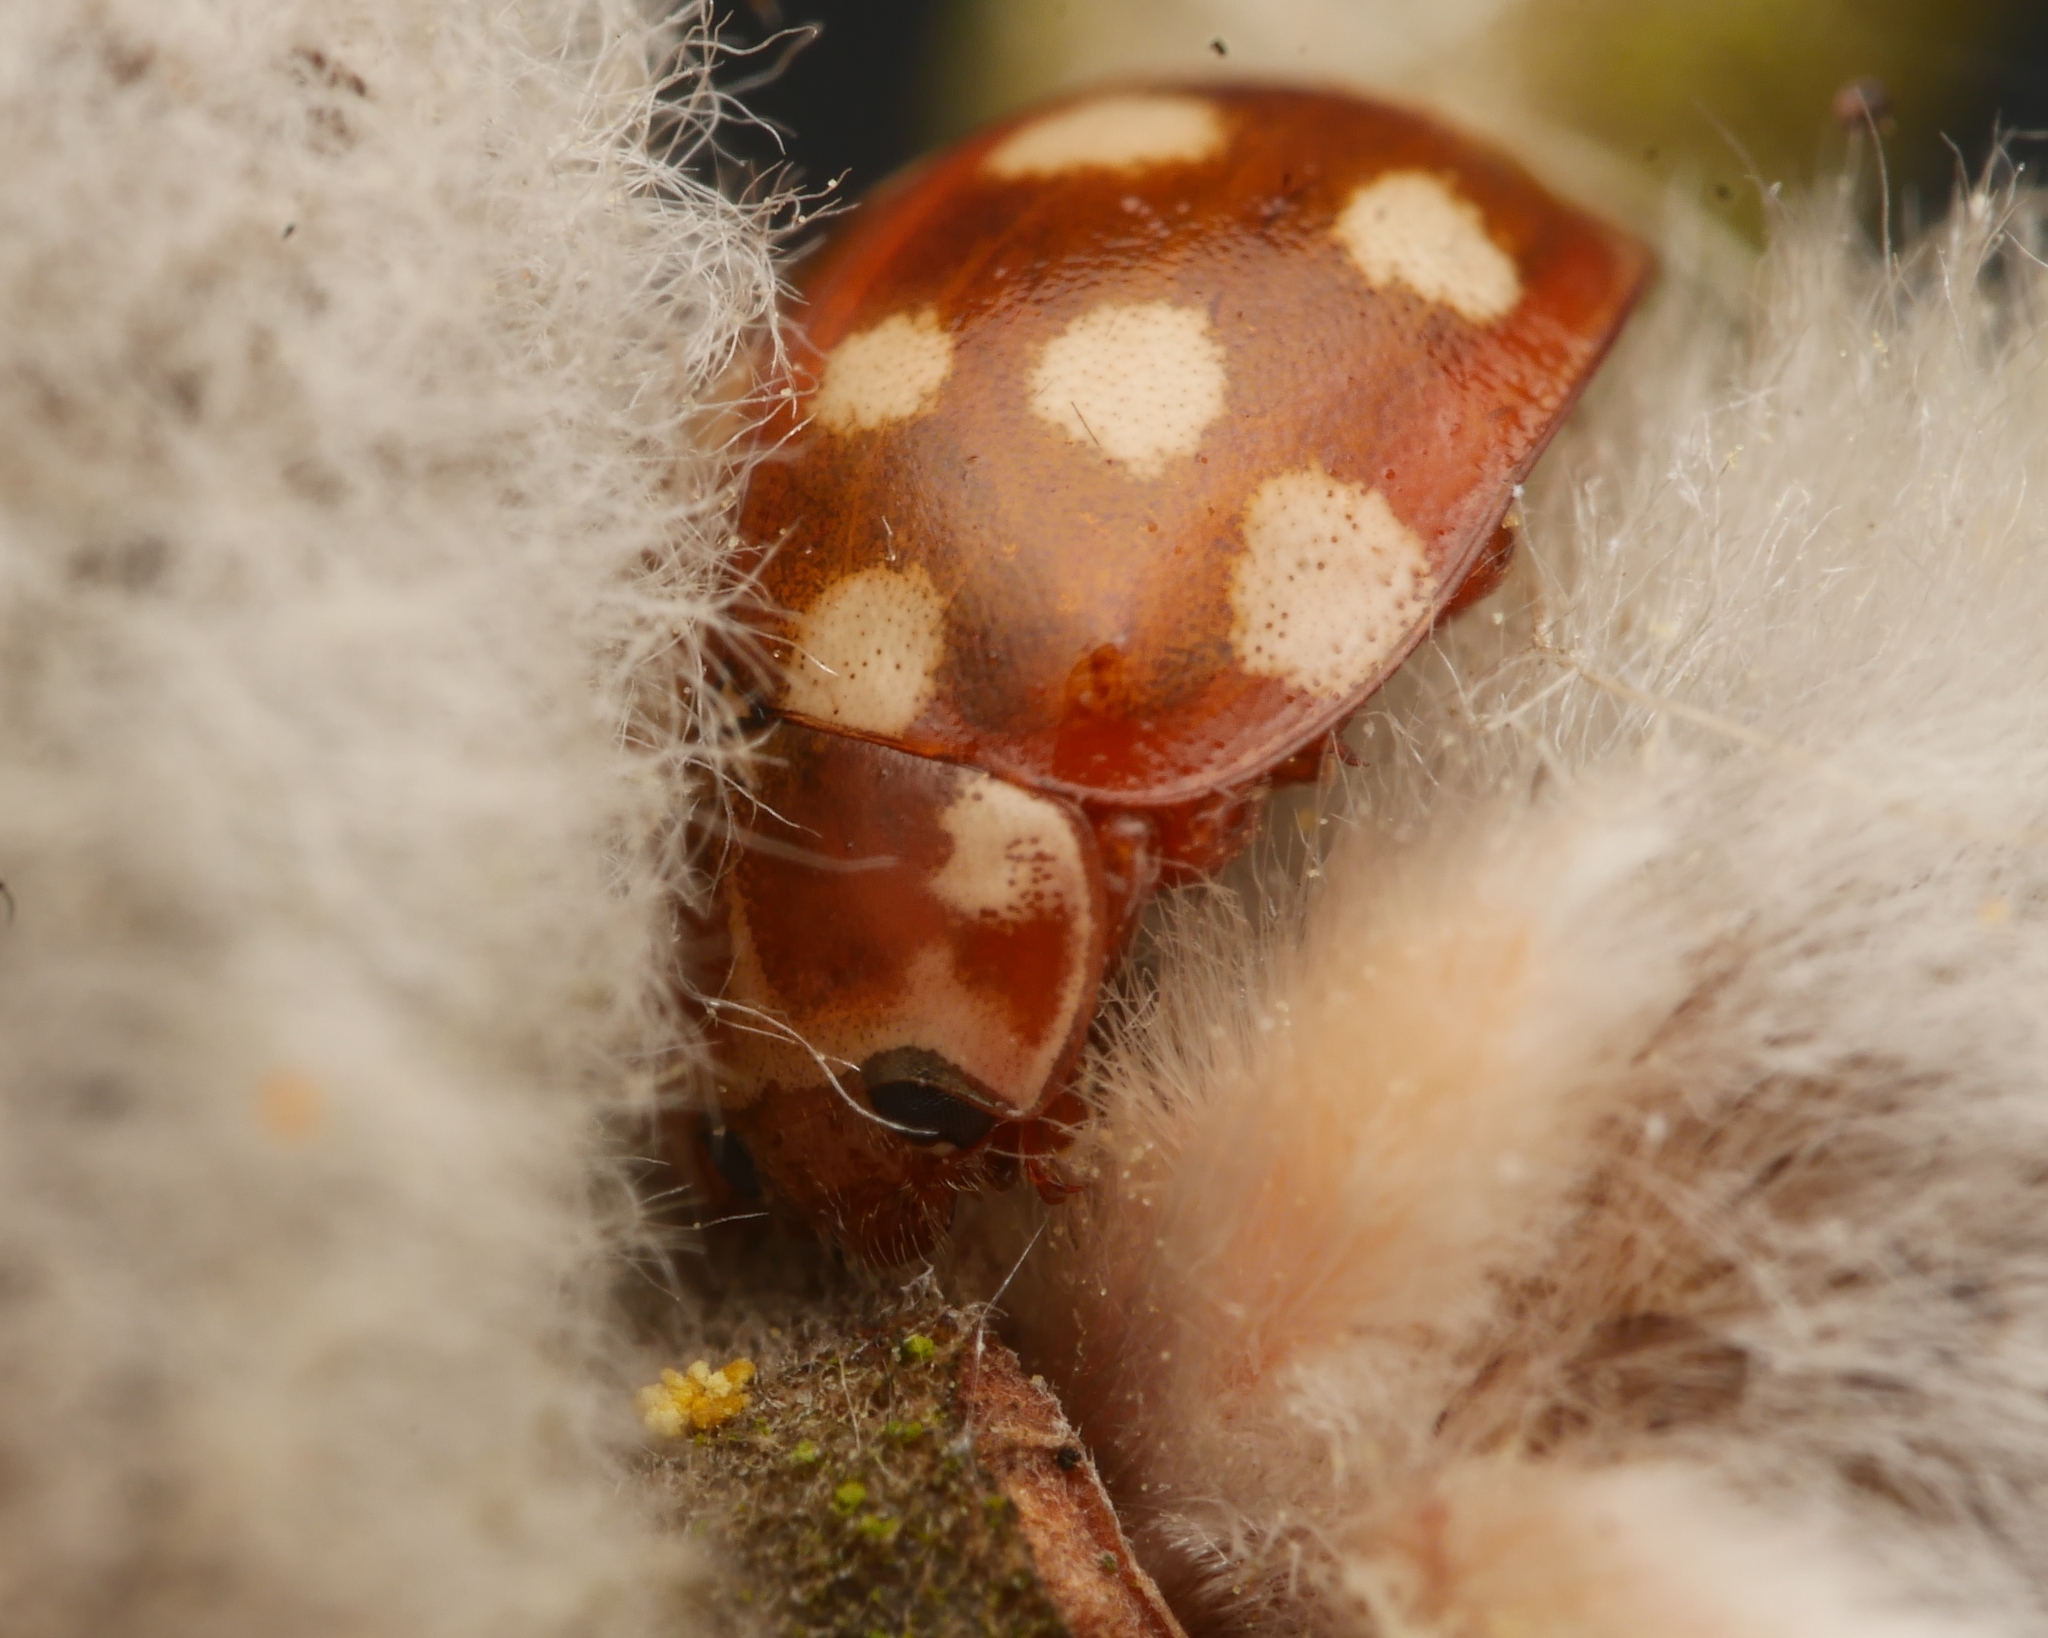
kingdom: Animalia
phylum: Arthropoda
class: Insecta
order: Coleoptera
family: Coccinellidae
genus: Calvia
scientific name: Calvia quatuordecimguttata
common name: Cream-spot ladybird
